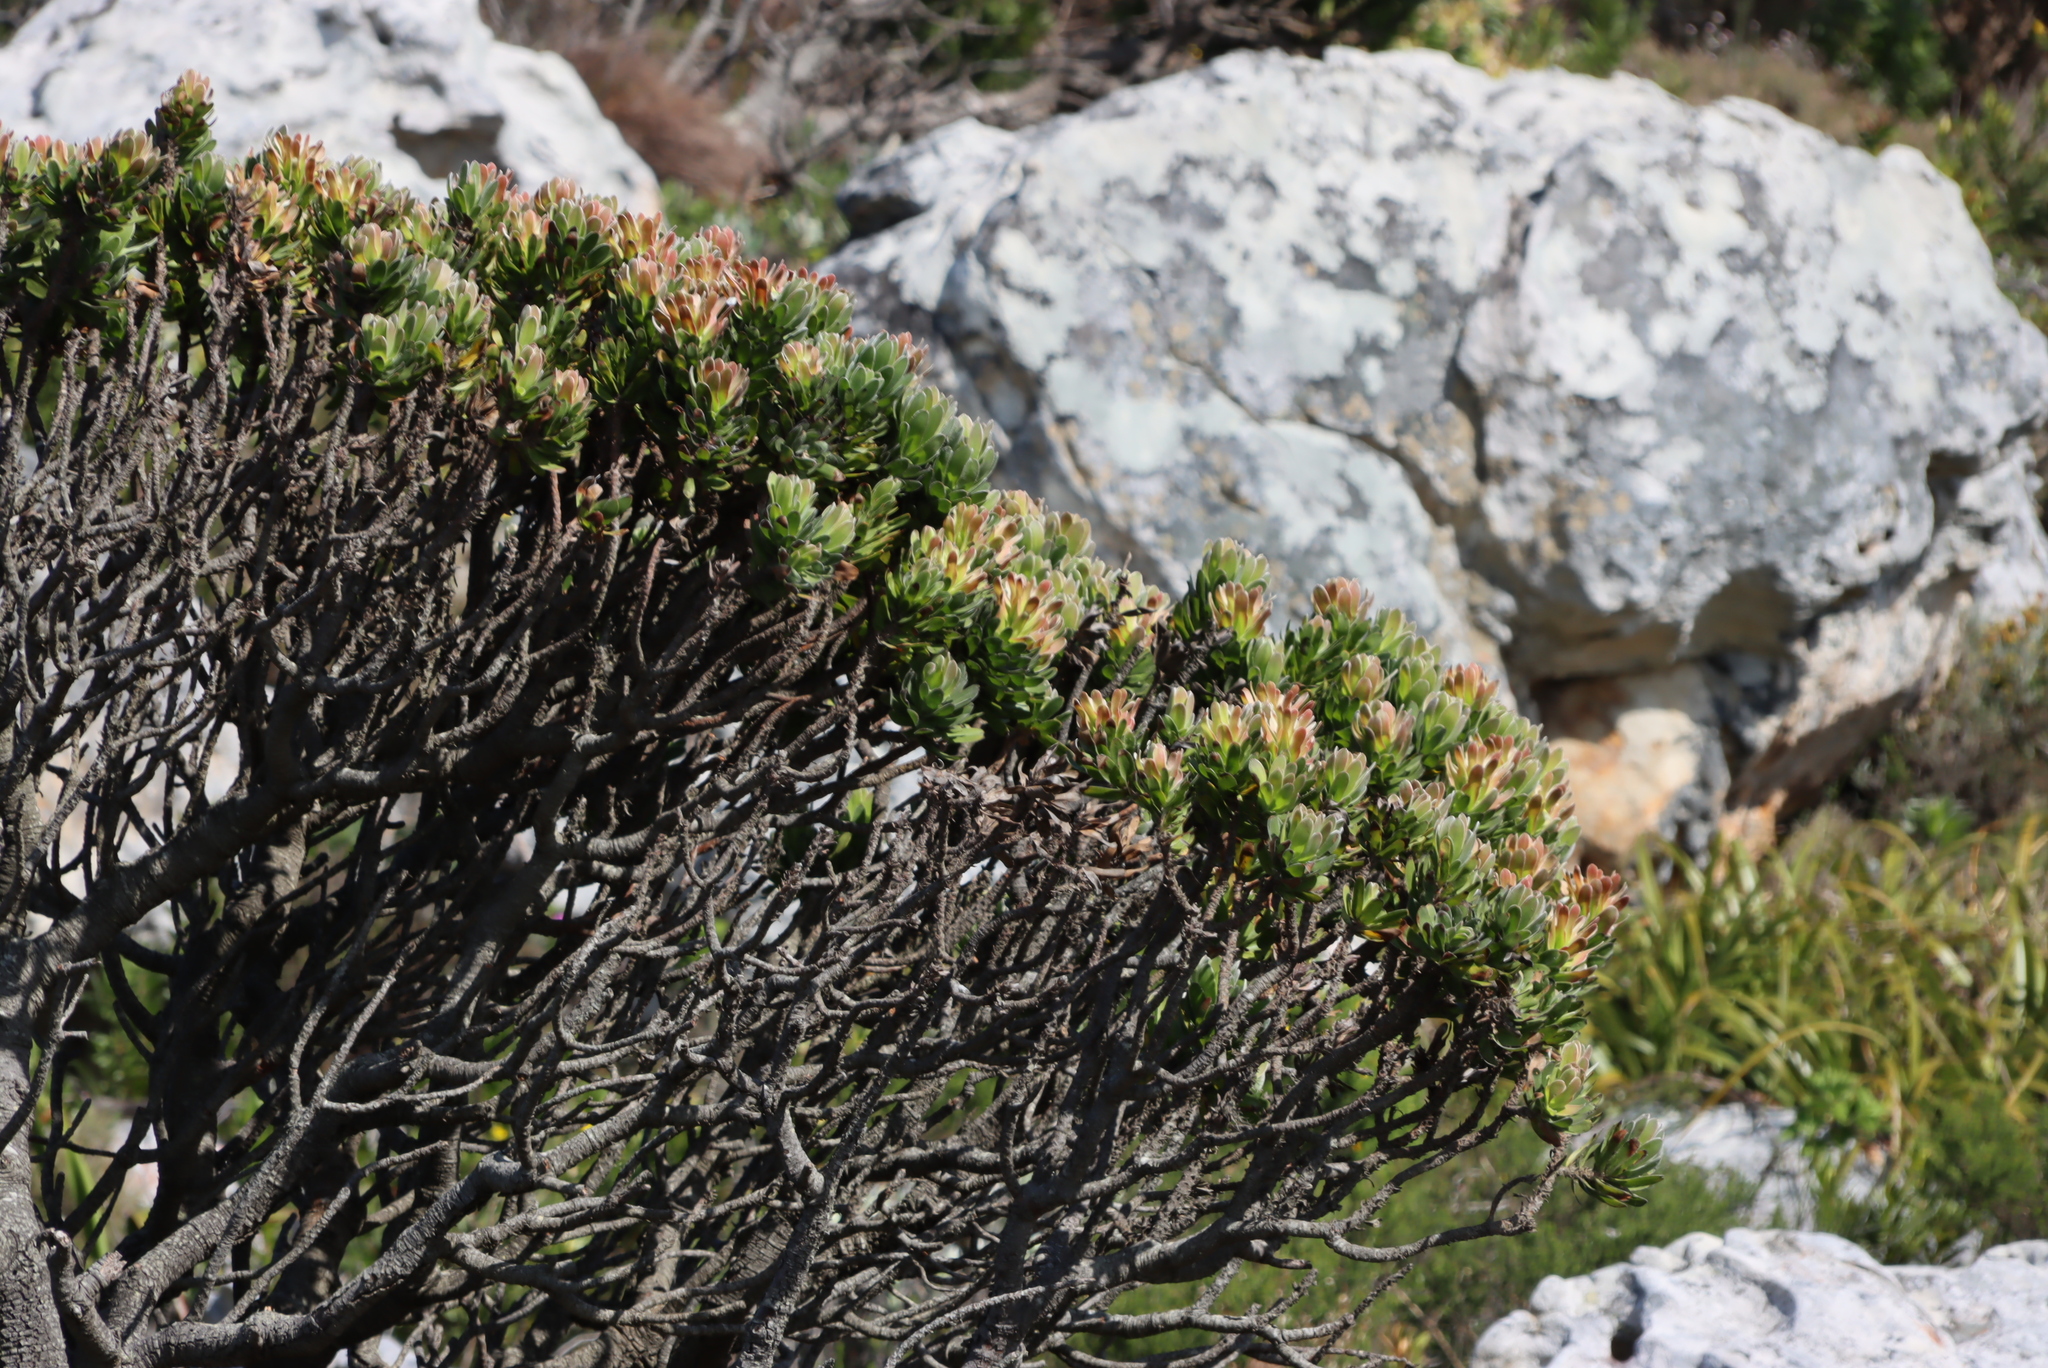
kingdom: Plantae
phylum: Tracheophyta
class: Magnoliopsida
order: Proteales
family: Proteaceae
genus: Mimetes
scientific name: Mimetes fimbriifolius
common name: Fringed bottlebrush
